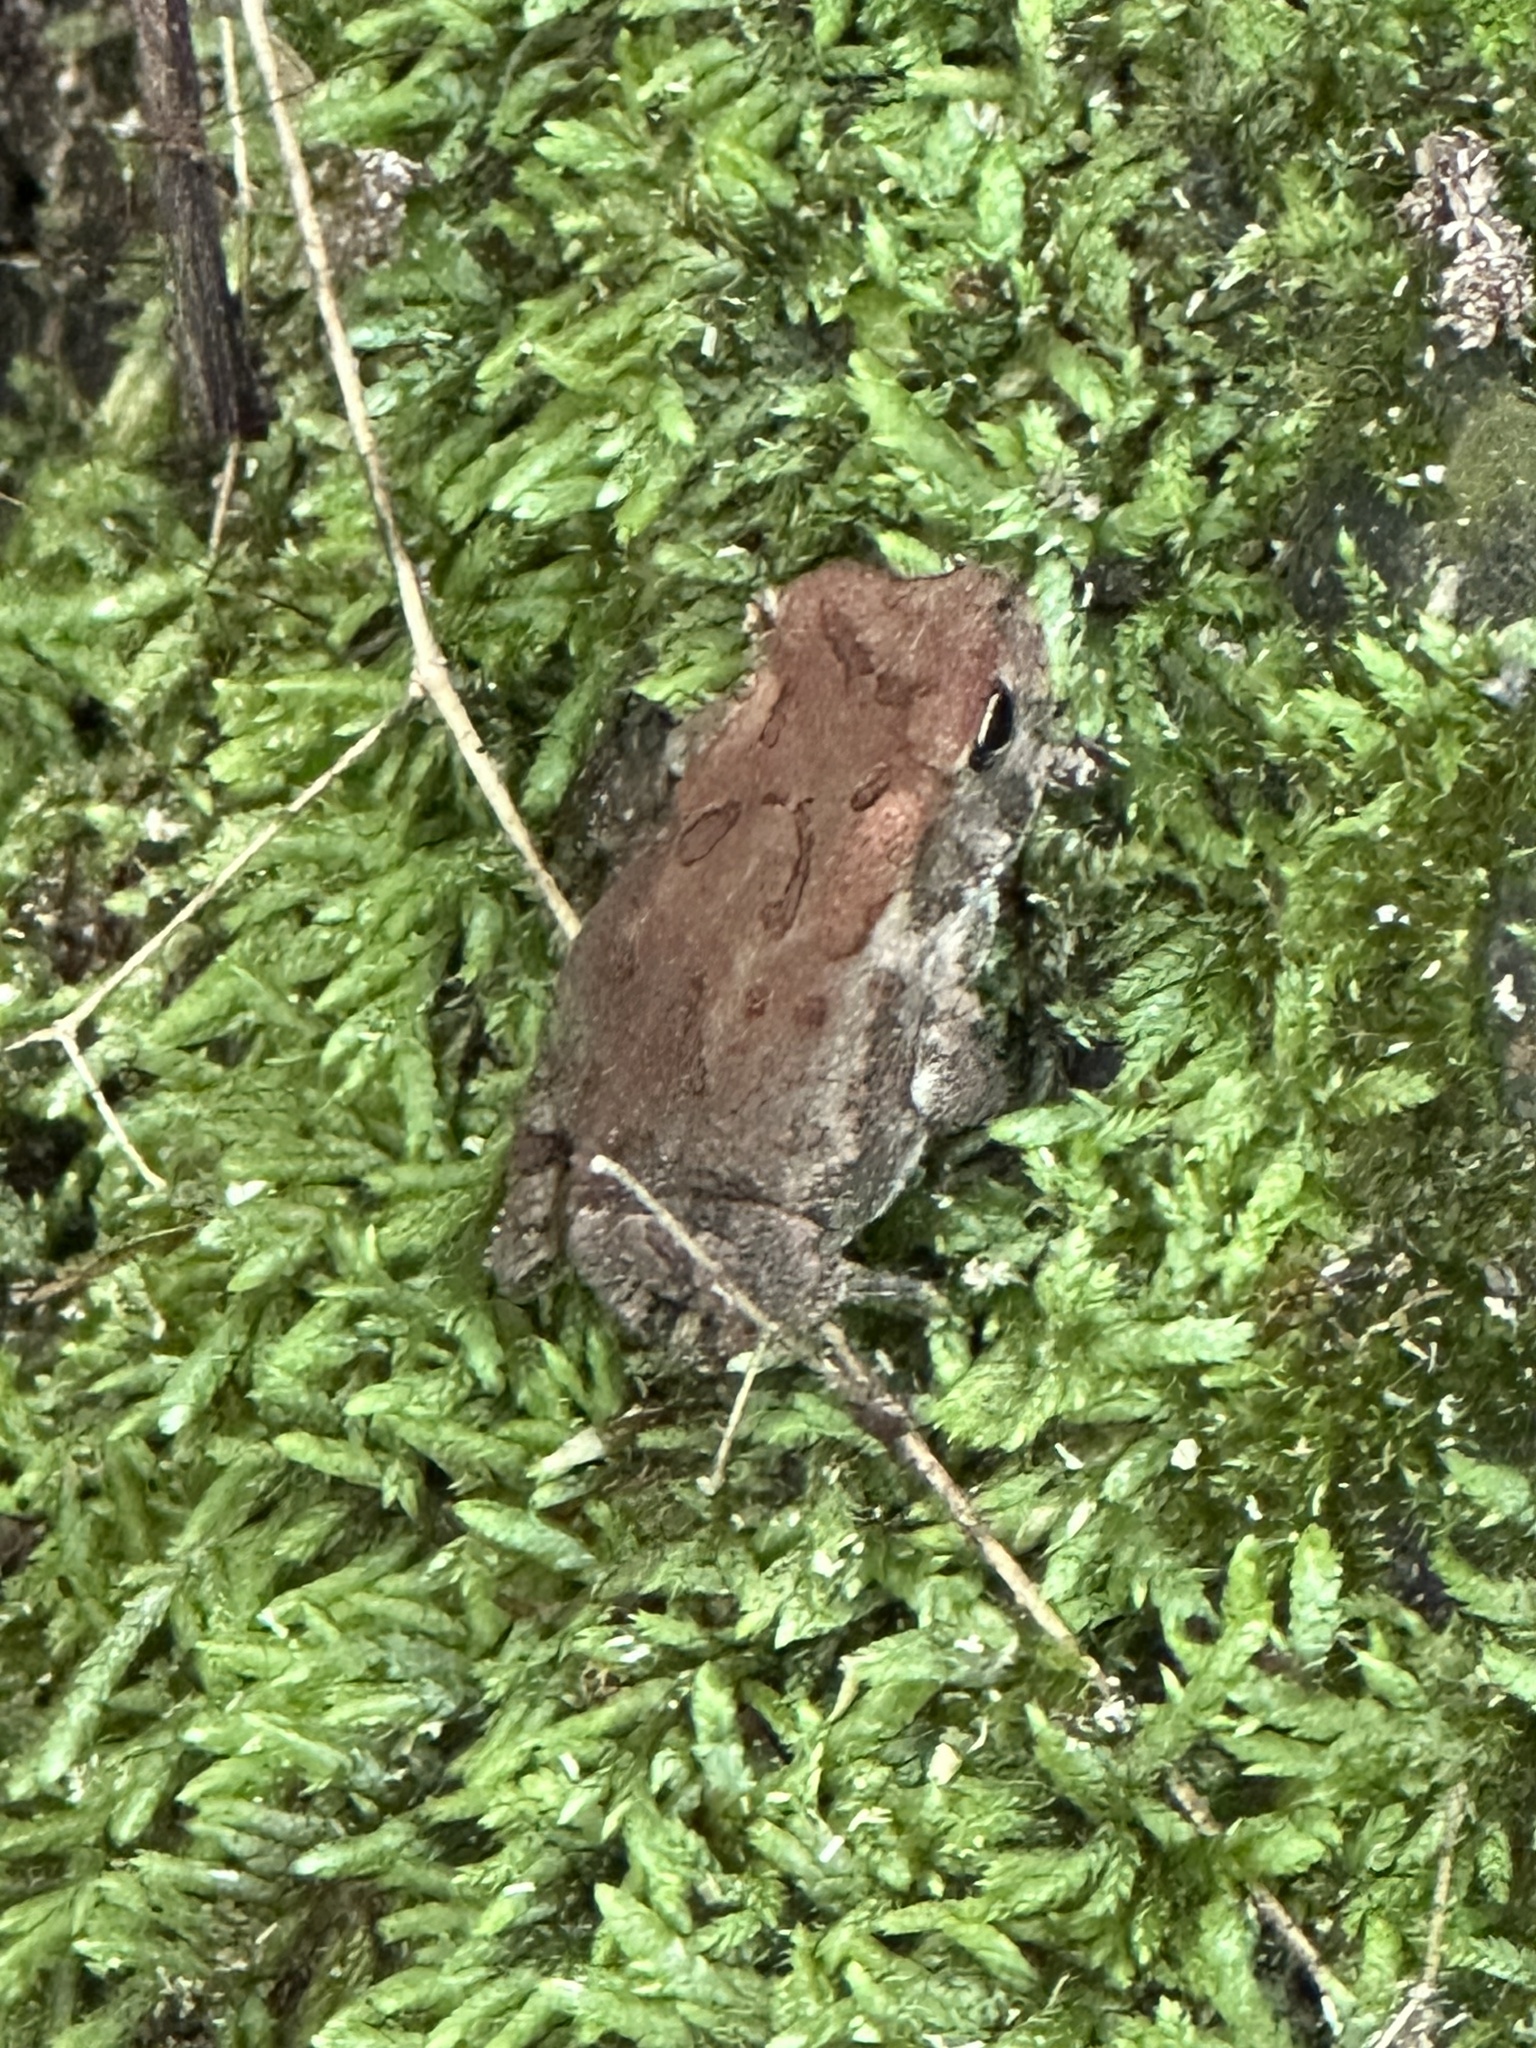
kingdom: Animalia
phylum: Chordata
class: Amphibia
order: Anura
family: Bufonidae
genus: Anaxyrus
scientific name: Anaxyrus fowleri
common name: Fowler's toad
